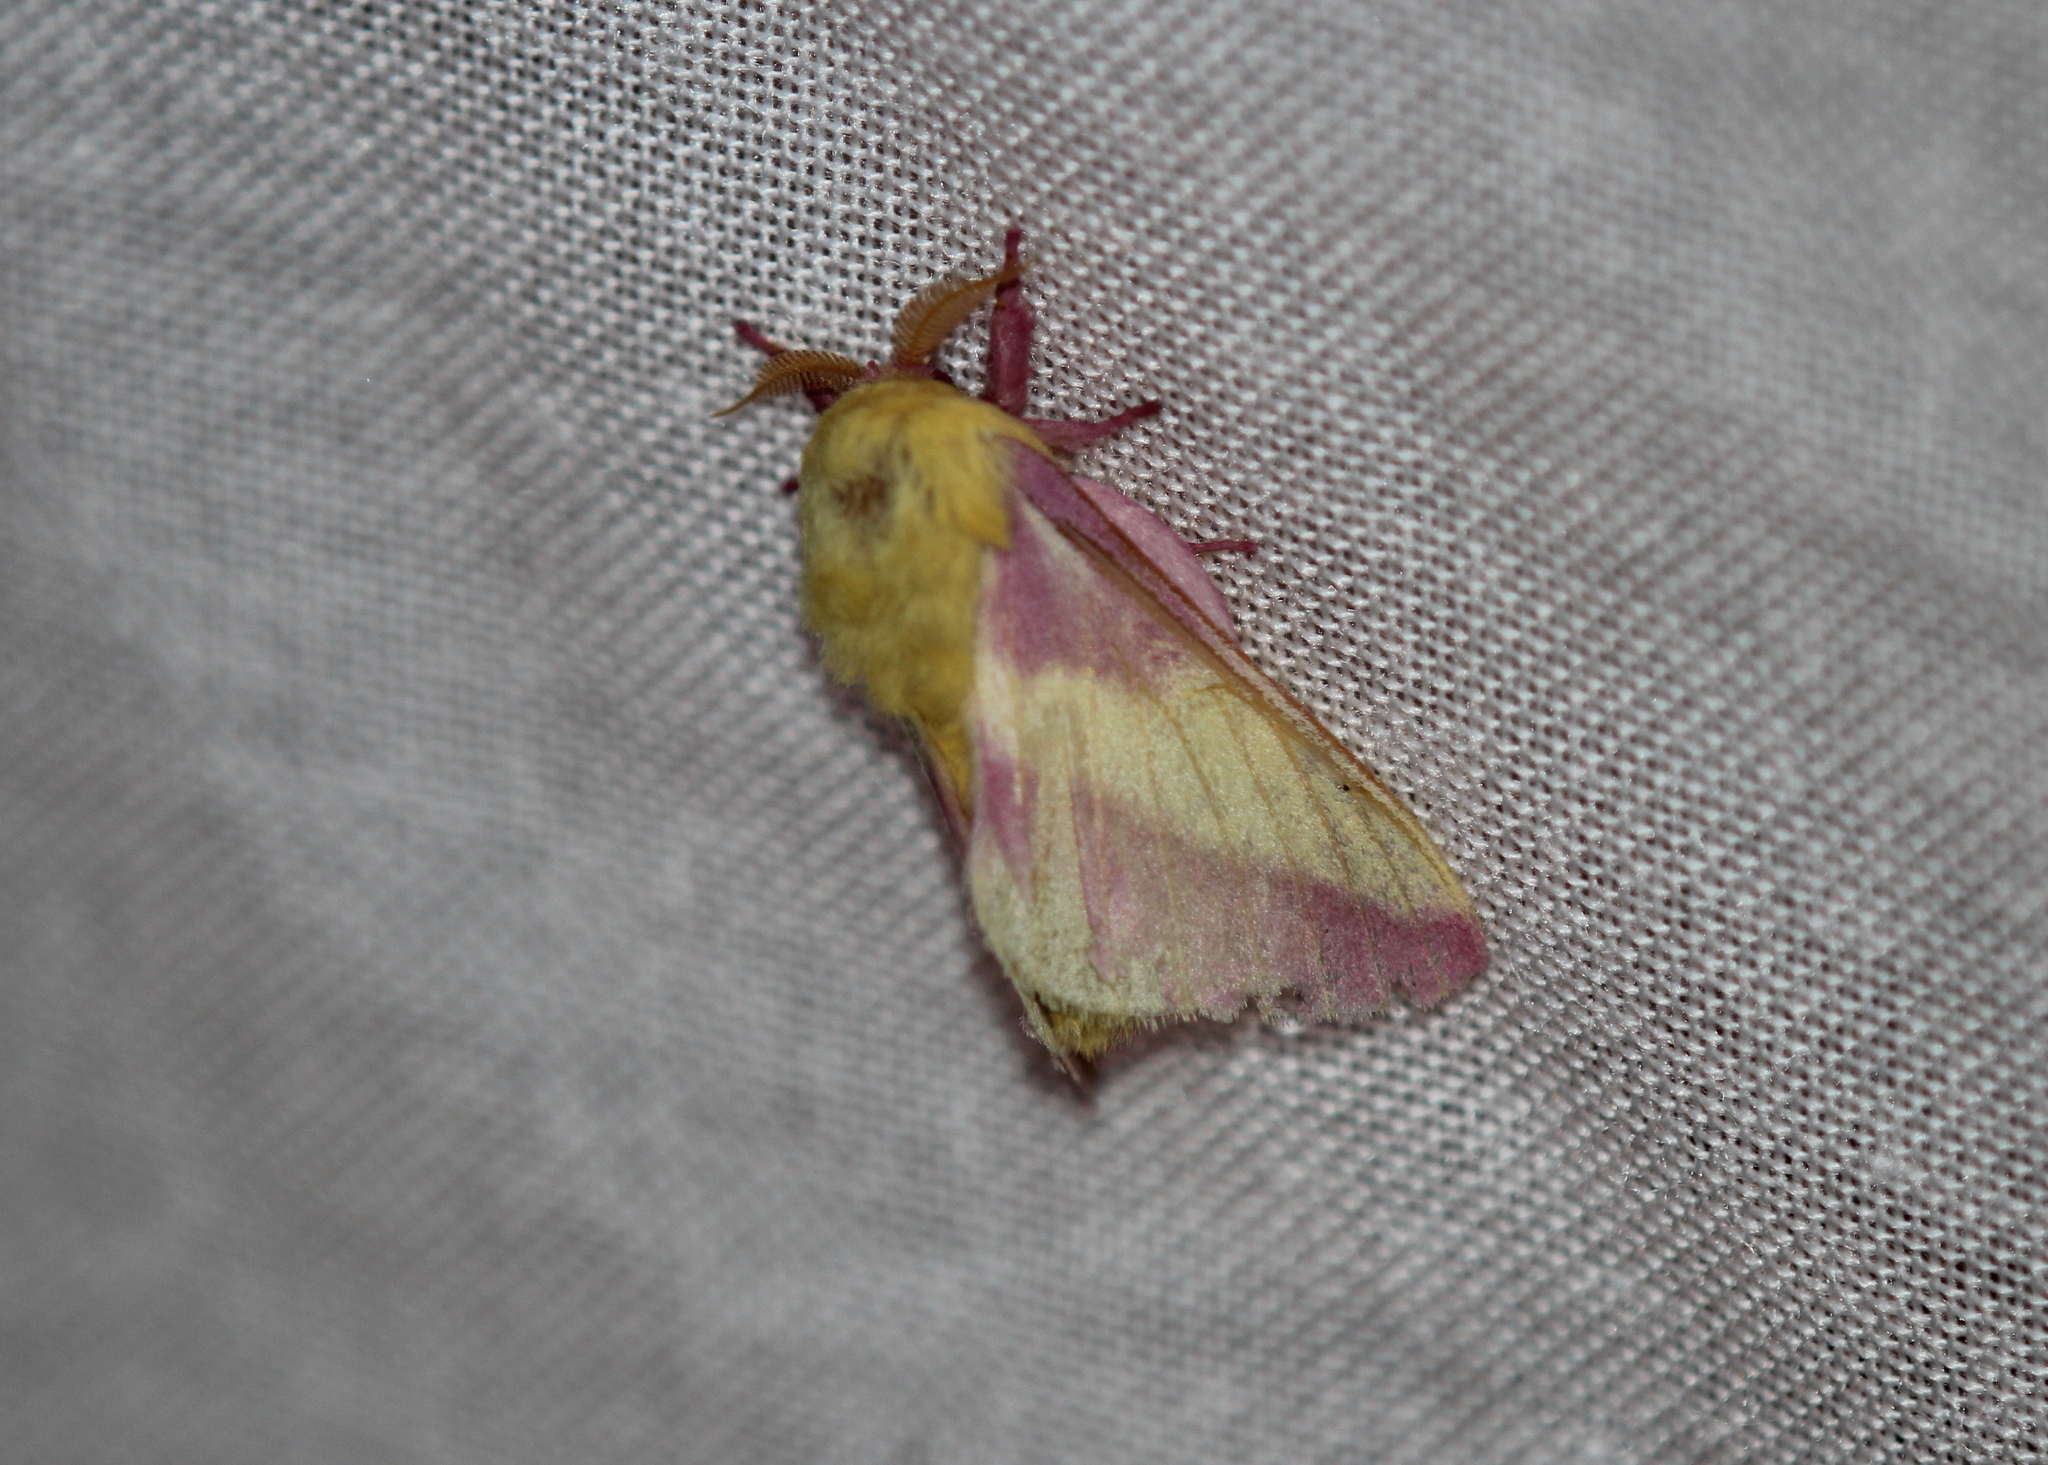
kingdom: Animalia
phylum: Arthropoda
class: Insecta
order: Lepidoptera
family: Saturniidae
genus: Dryocampa
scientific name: Dryocampa rubicunda
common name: Rosy maple moth
